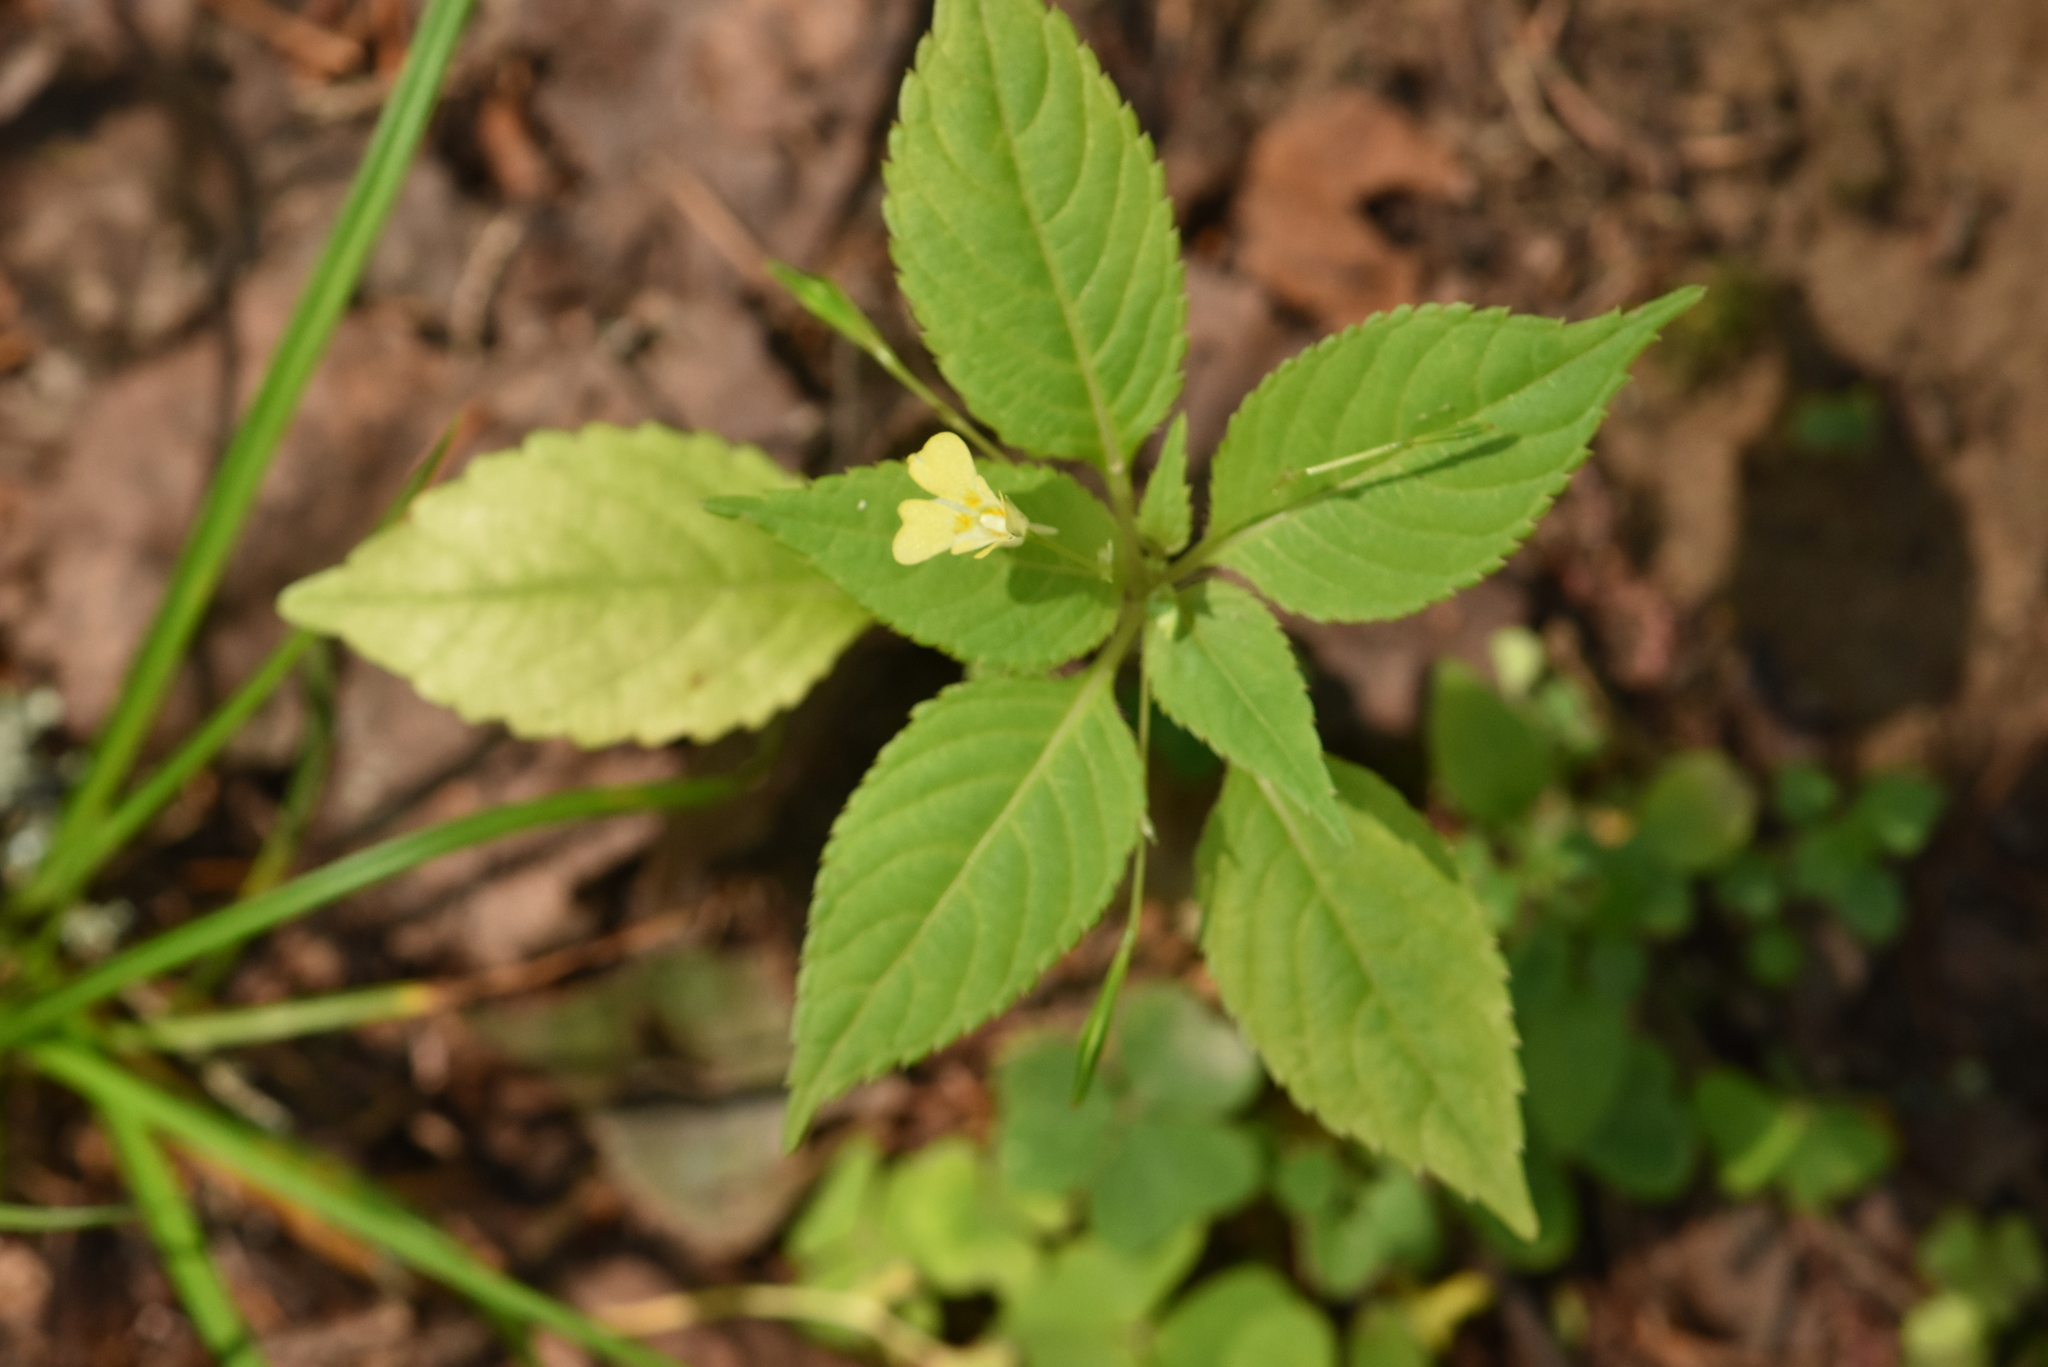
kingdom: Plantae
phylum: Tracheophyta
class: Magnoliopsida
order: Ericales
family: Balsaminaceae
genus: Impatiens
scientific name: Impatiens parviflora
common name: Small balsam
